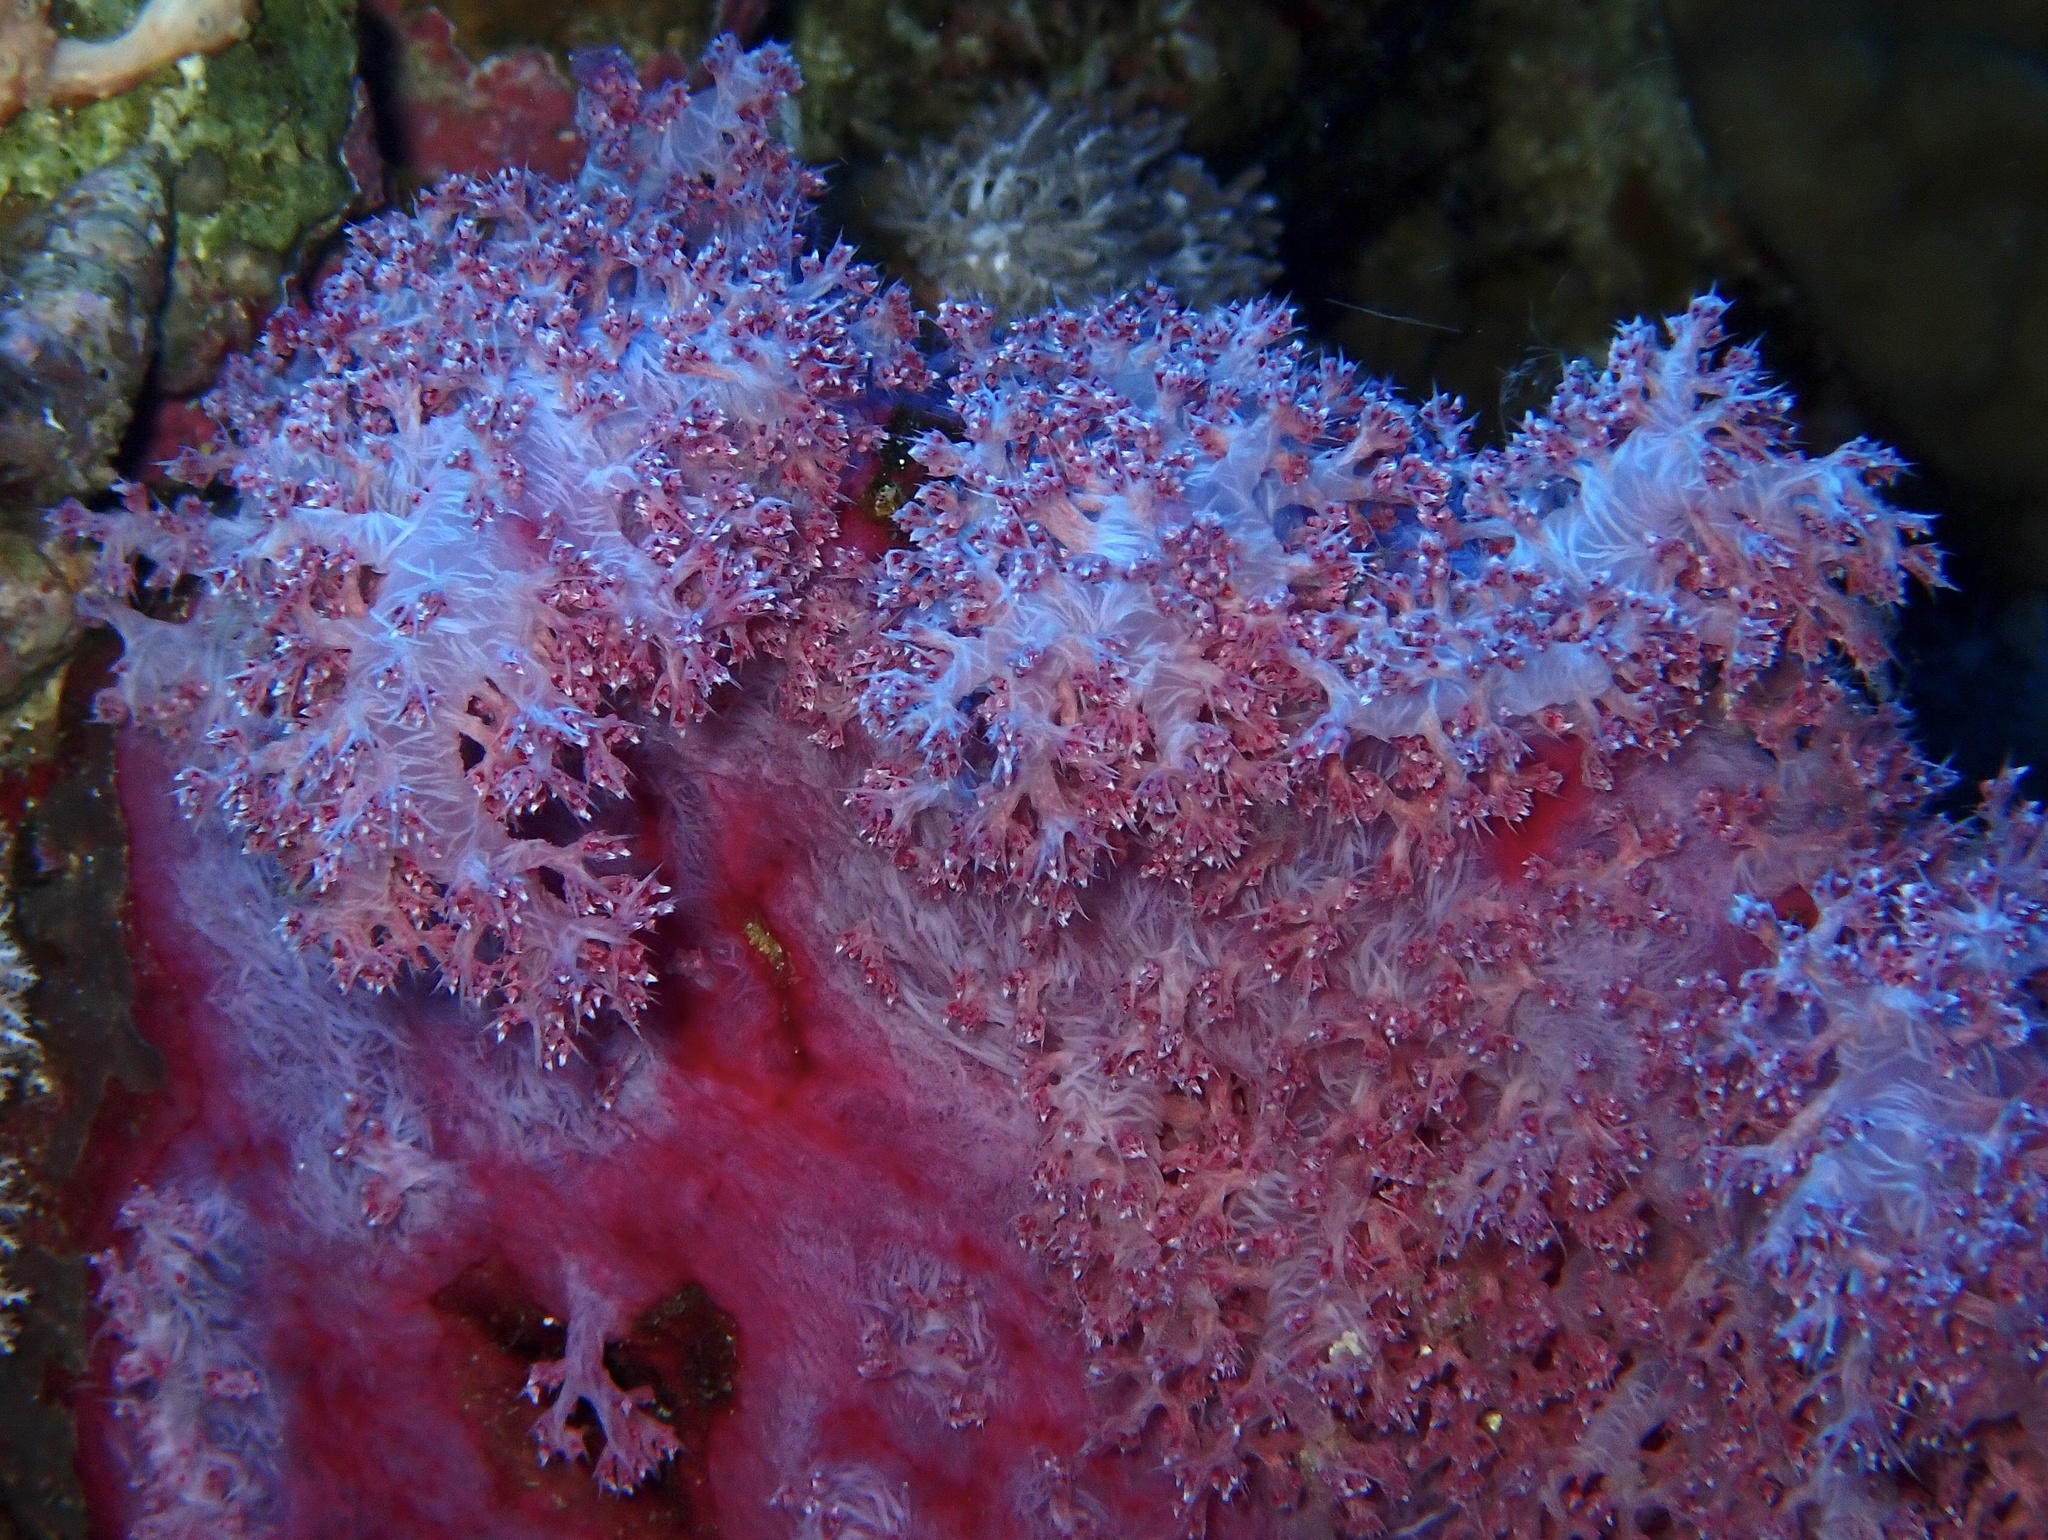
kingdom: Animalia
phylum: Cnidaria
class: Anthozoa
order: Malacalcyonacea
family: Nephtheidae
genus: Dendronephthya
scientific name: Dendronephthya hemprichi
